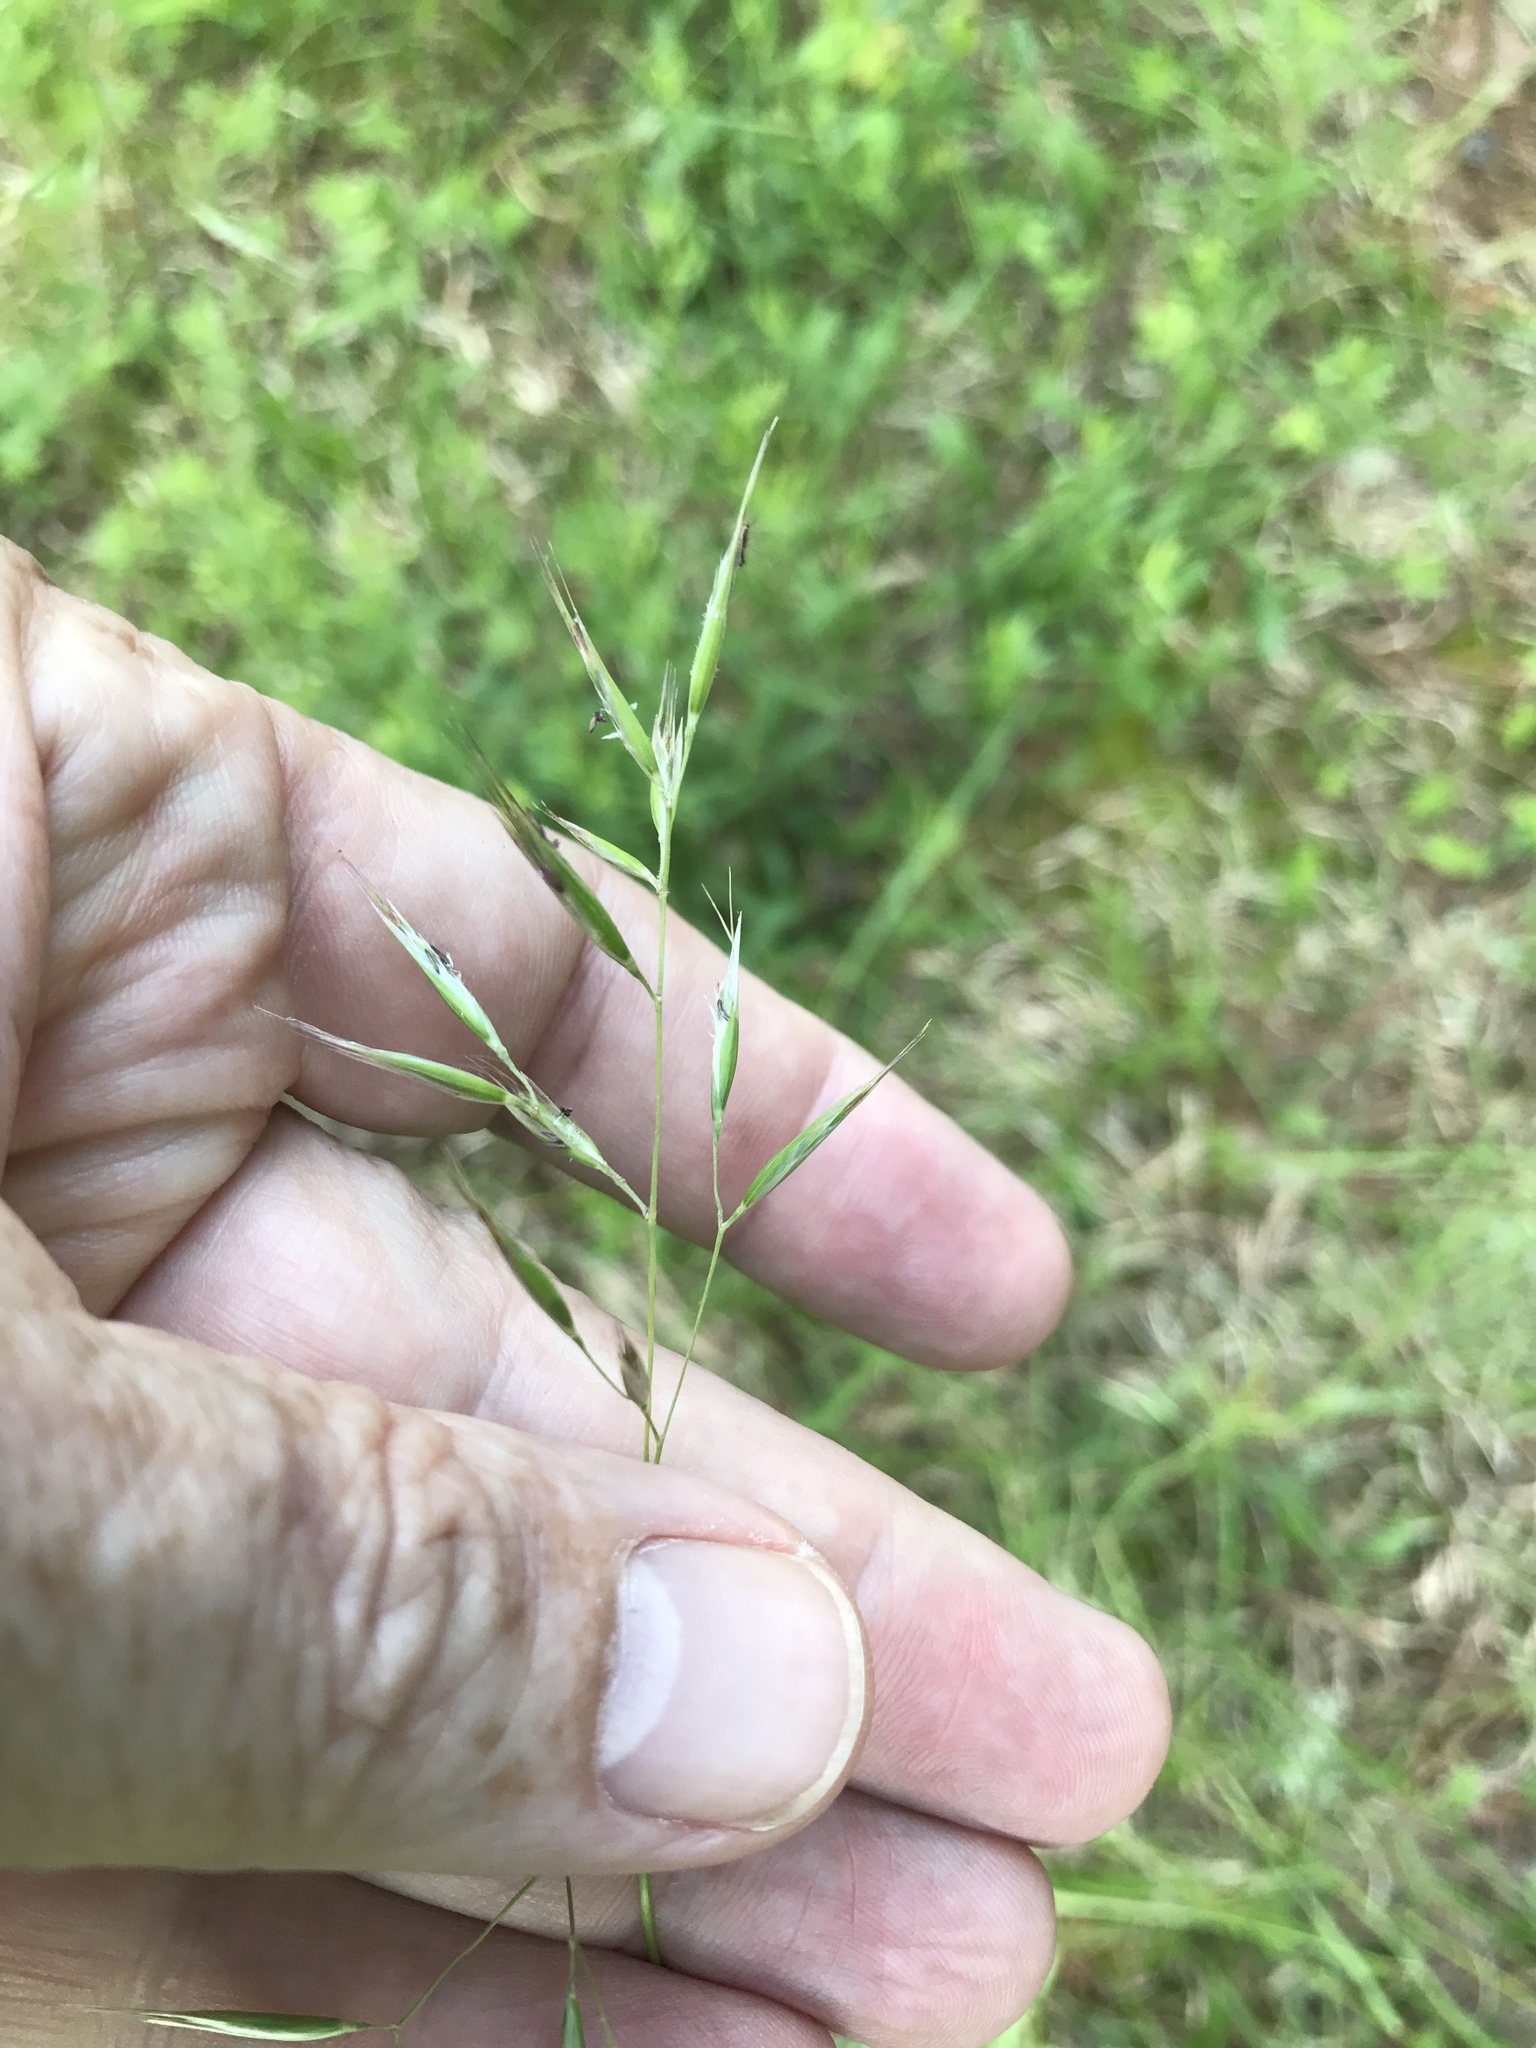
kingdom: Plantae
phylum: Tracheophyta
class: Liliopsida
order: Poales
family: Poaceae
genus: Danthonia
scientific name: Danthonia sericea
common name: Downy danthonia
